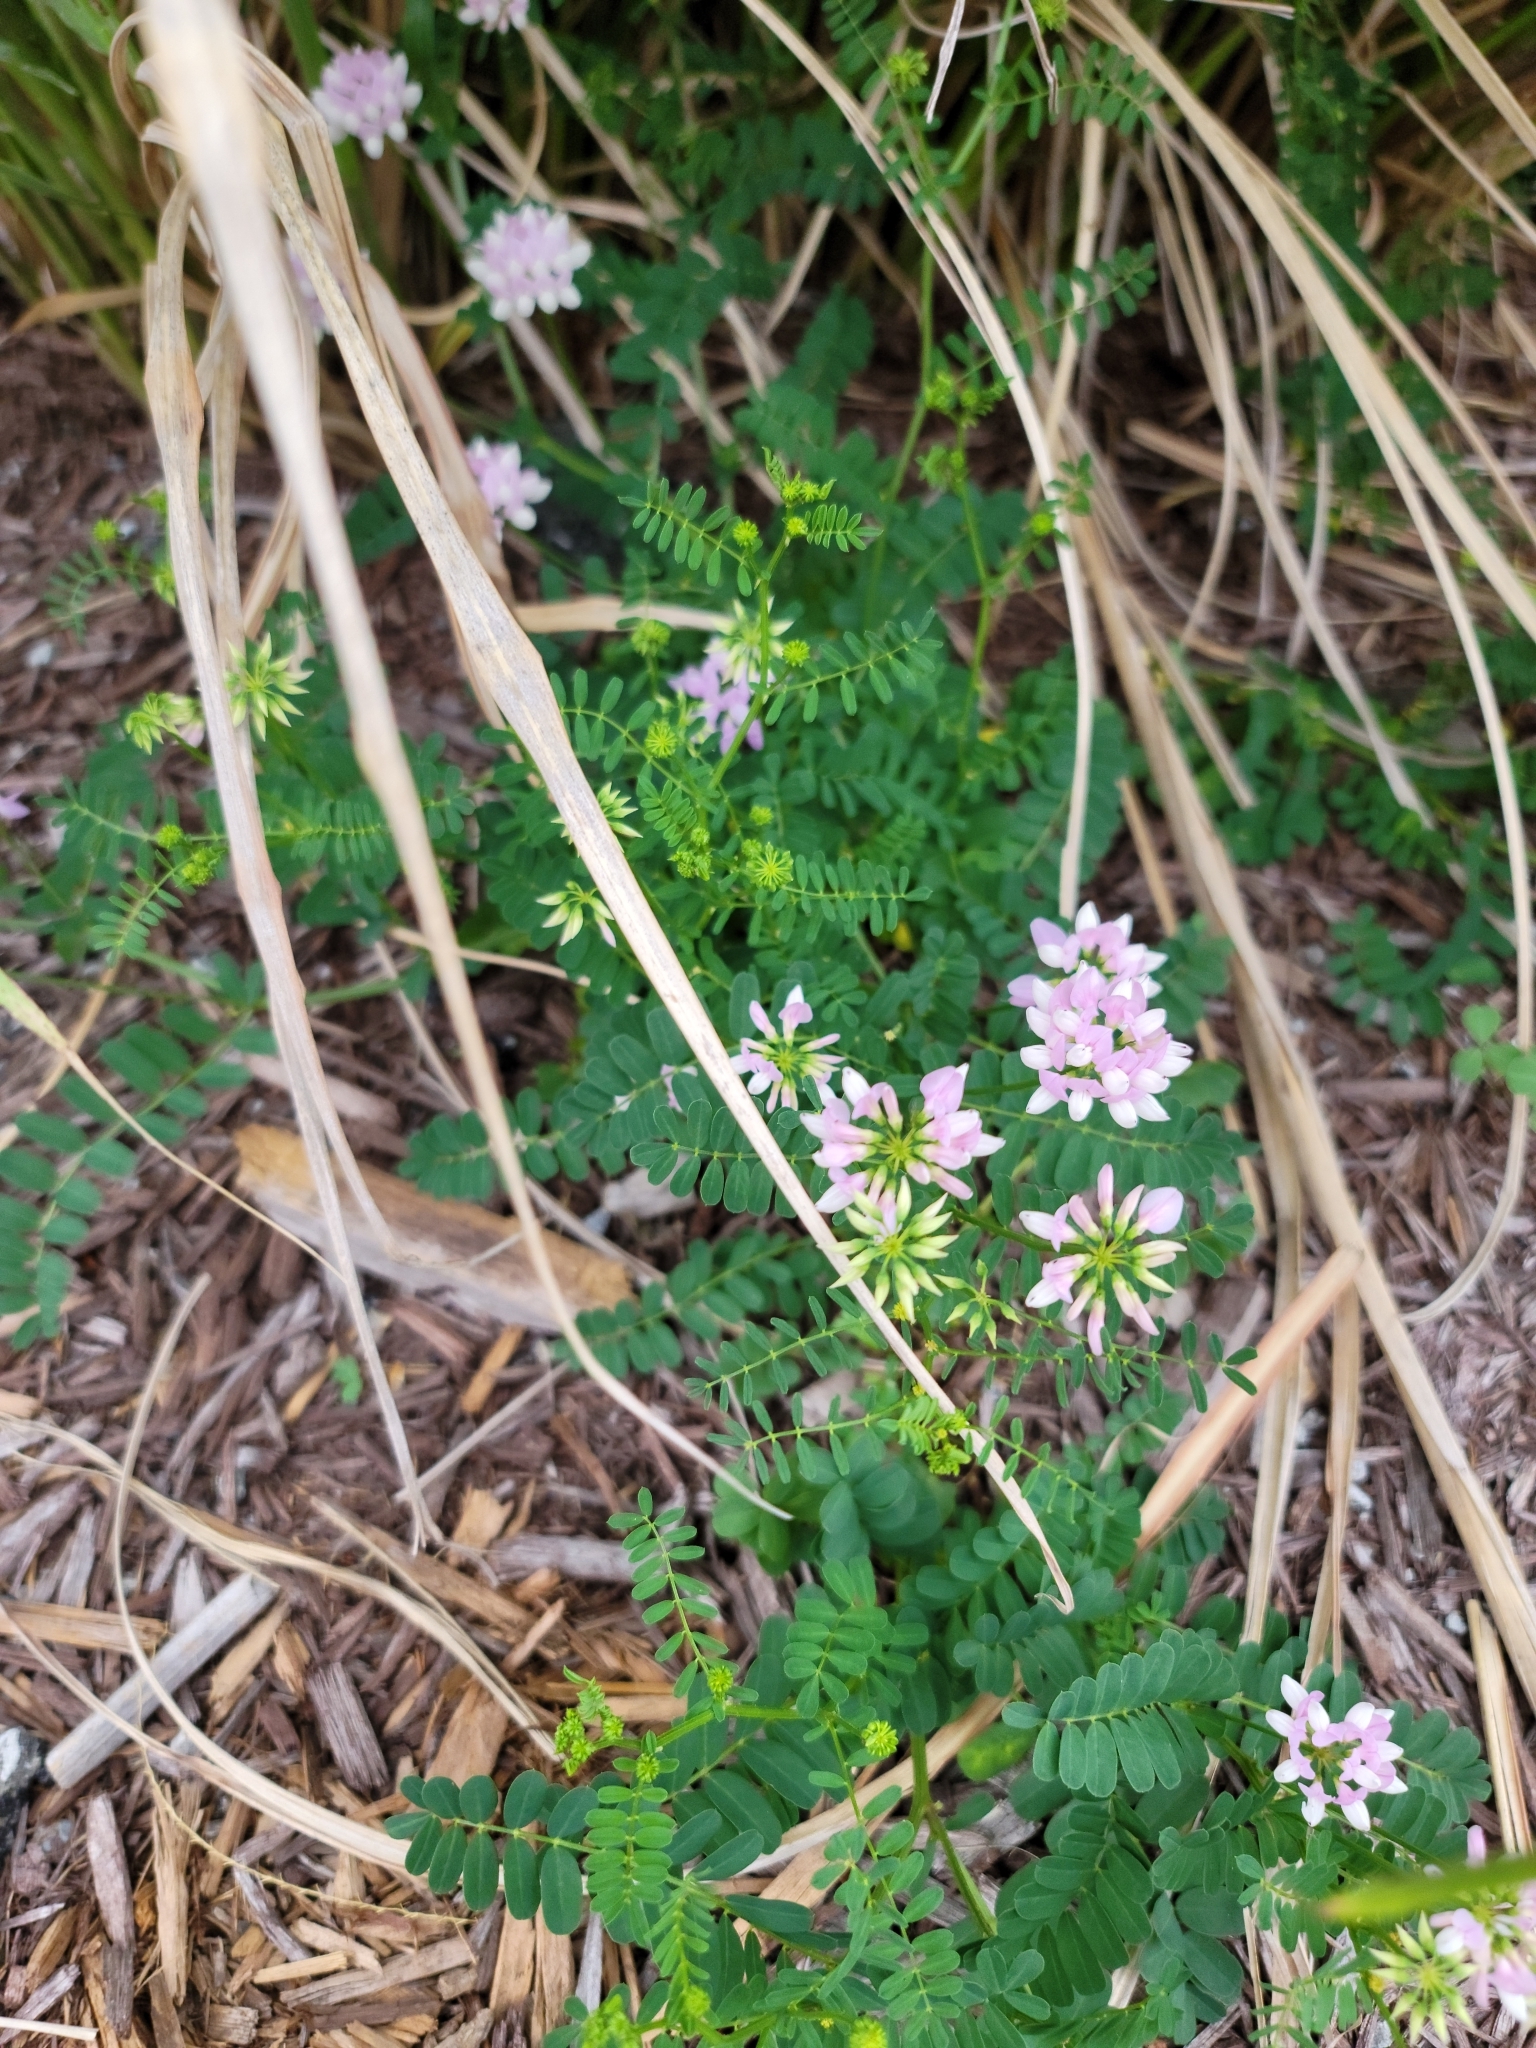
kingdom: Plantae
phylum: Tracheophyta
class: Magnoliopsida
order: Fabales
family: Fabaceae
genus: Coronilla
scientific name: Coronilla varia
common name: Crownvetch
